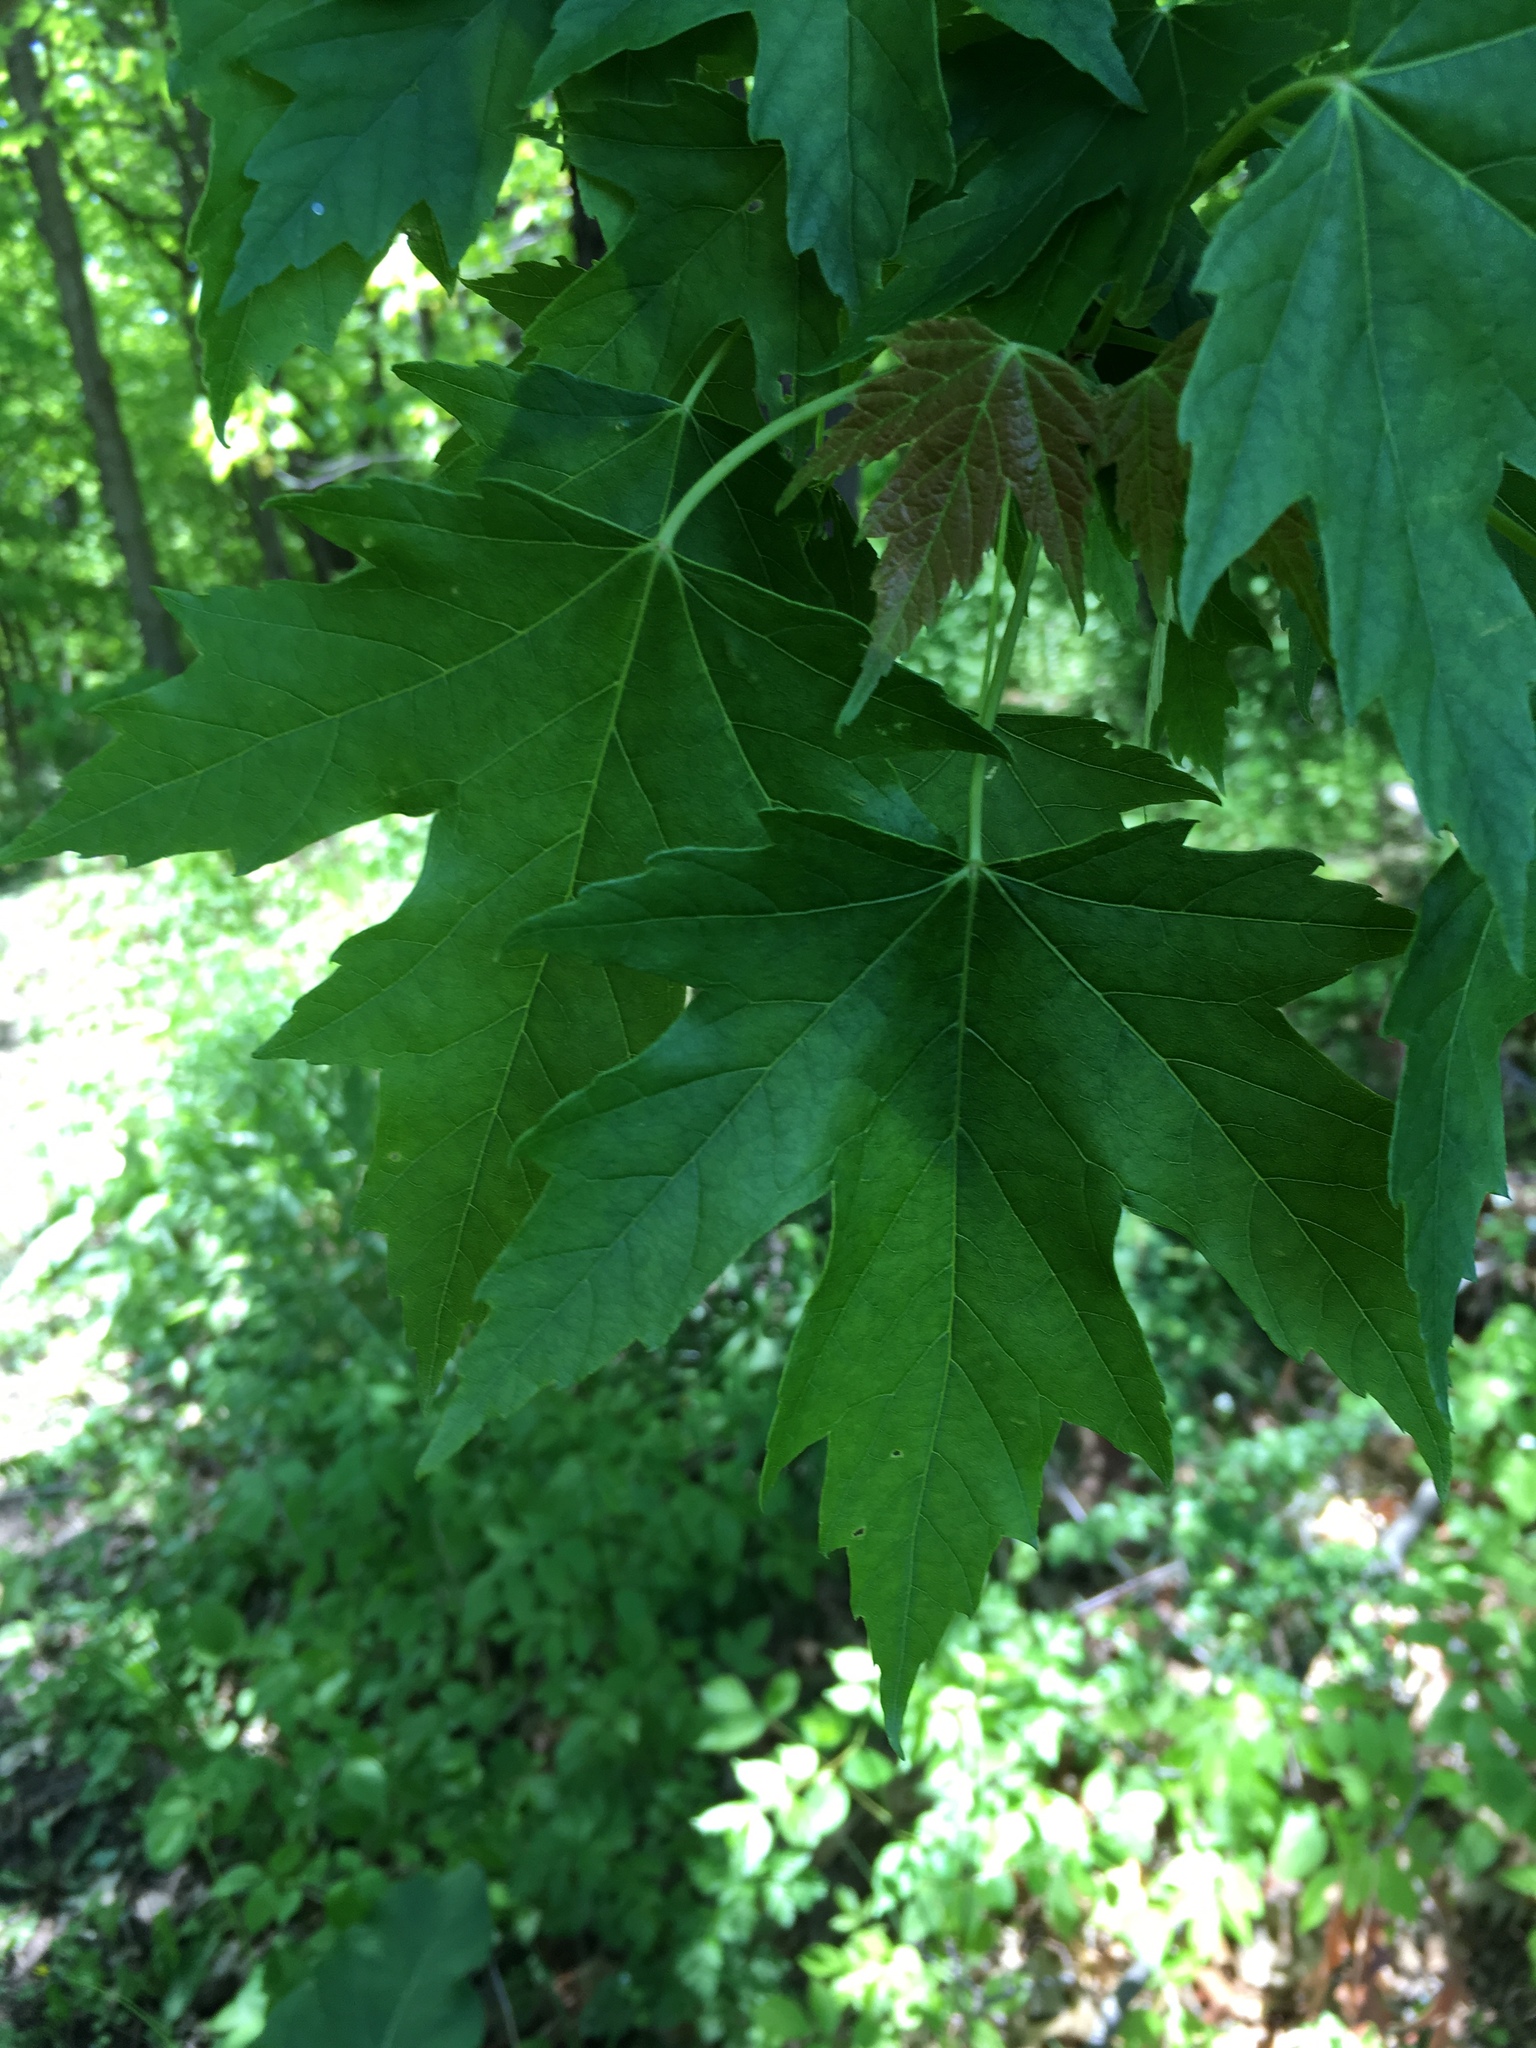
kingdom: Plantae
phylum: Tracheophyta
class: Magnoliopsida
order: Sapindales
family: Sapindaceae
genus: Acer
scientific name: Acer saccharinum
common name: Silver maple
